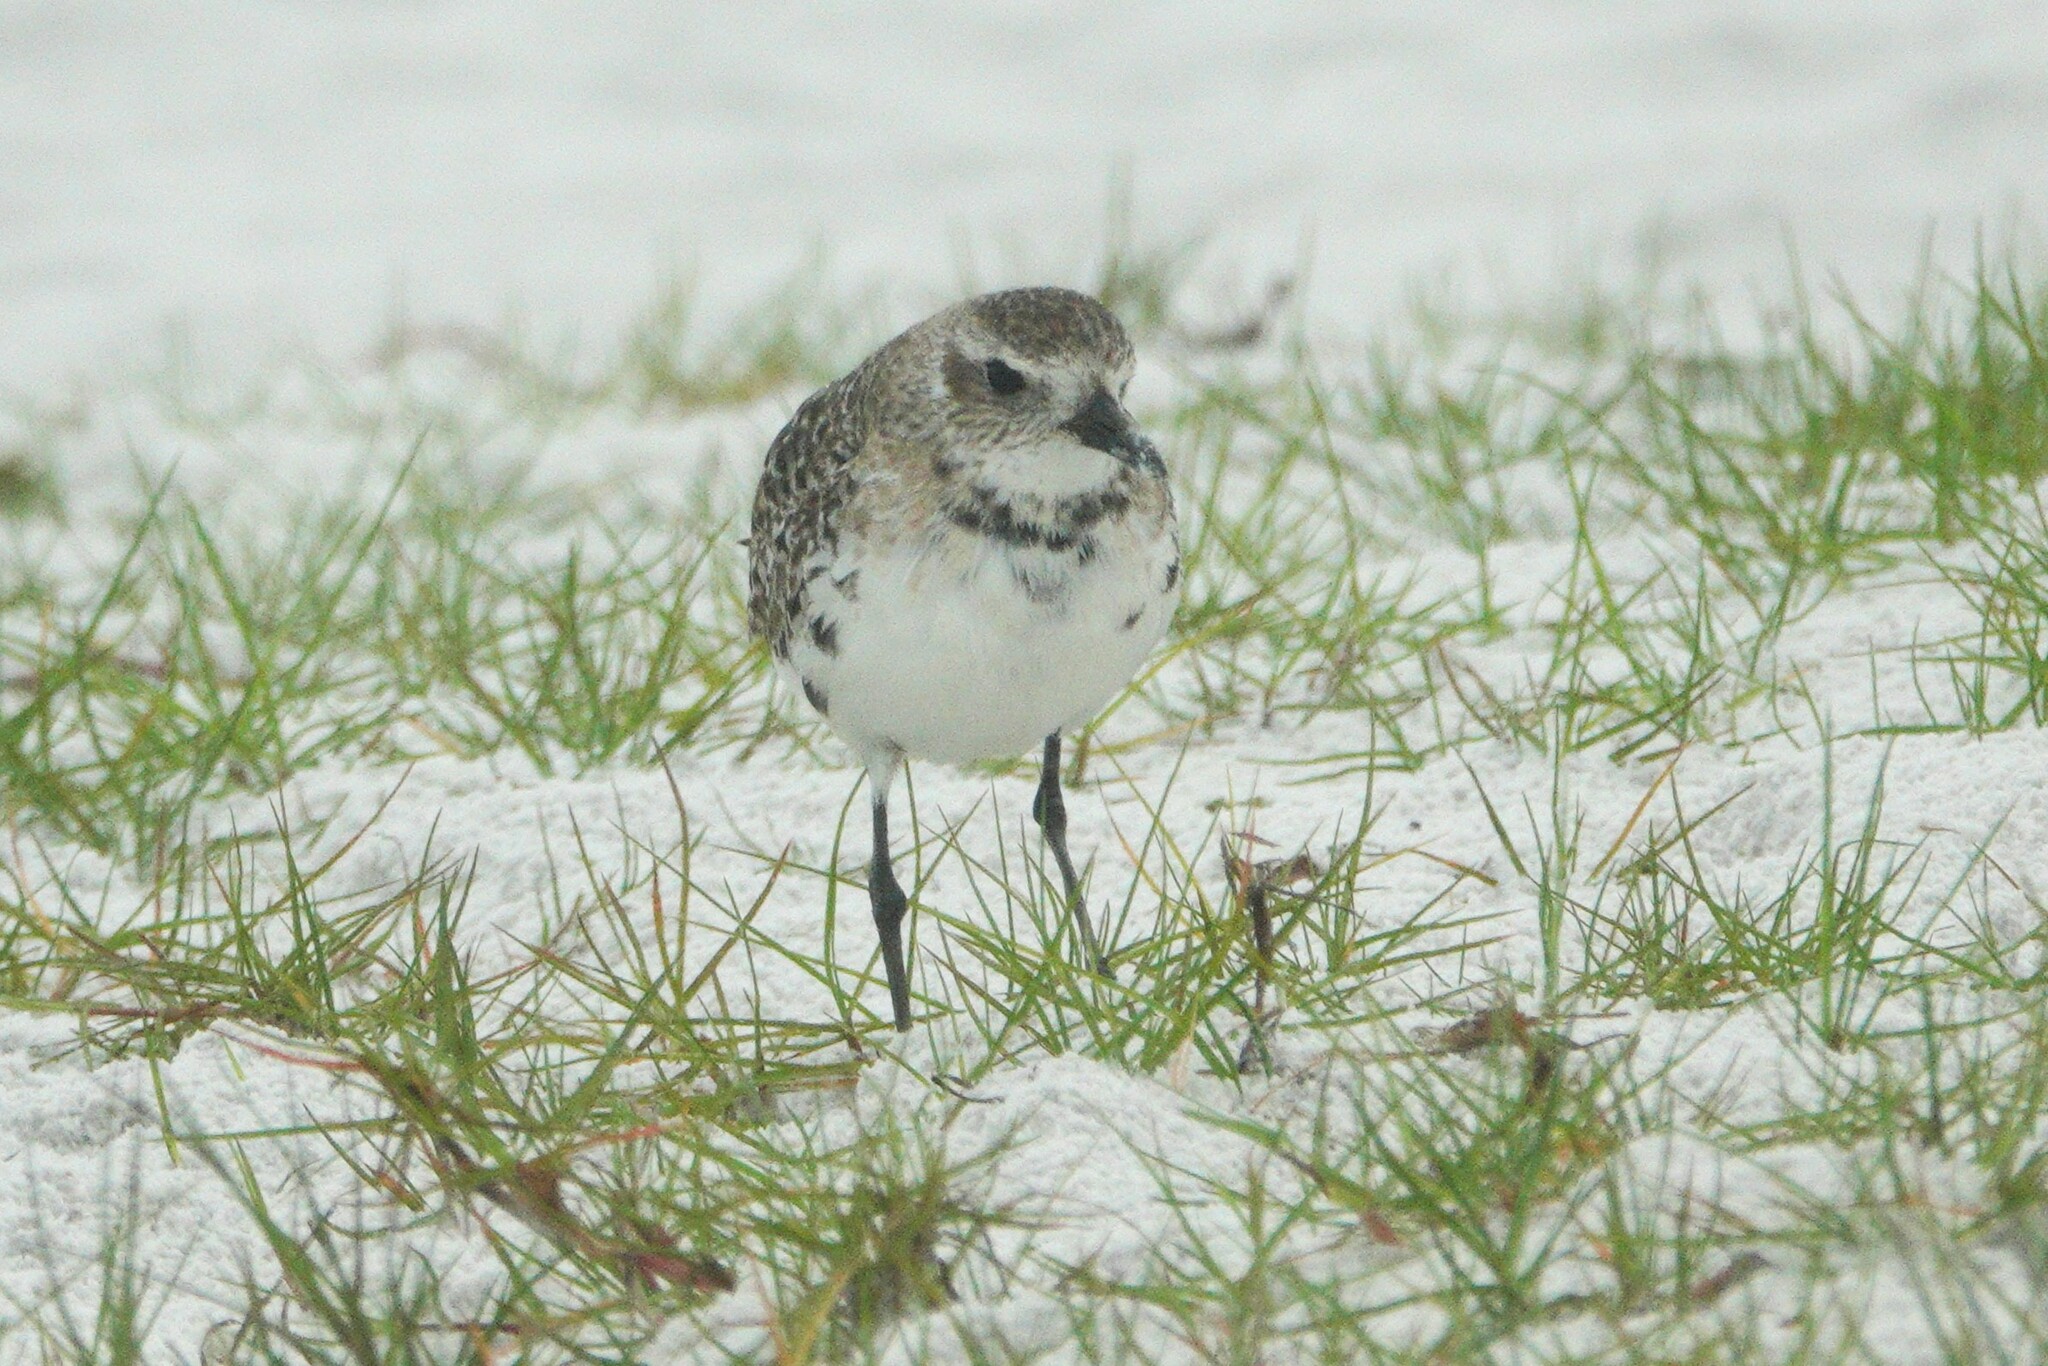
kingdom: Animalia
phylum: Chordata
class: Aves
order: Charadriiformes
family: Charadriidae
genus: Pluvialis
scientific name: Pluvialis squatarola
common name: Grey plover
